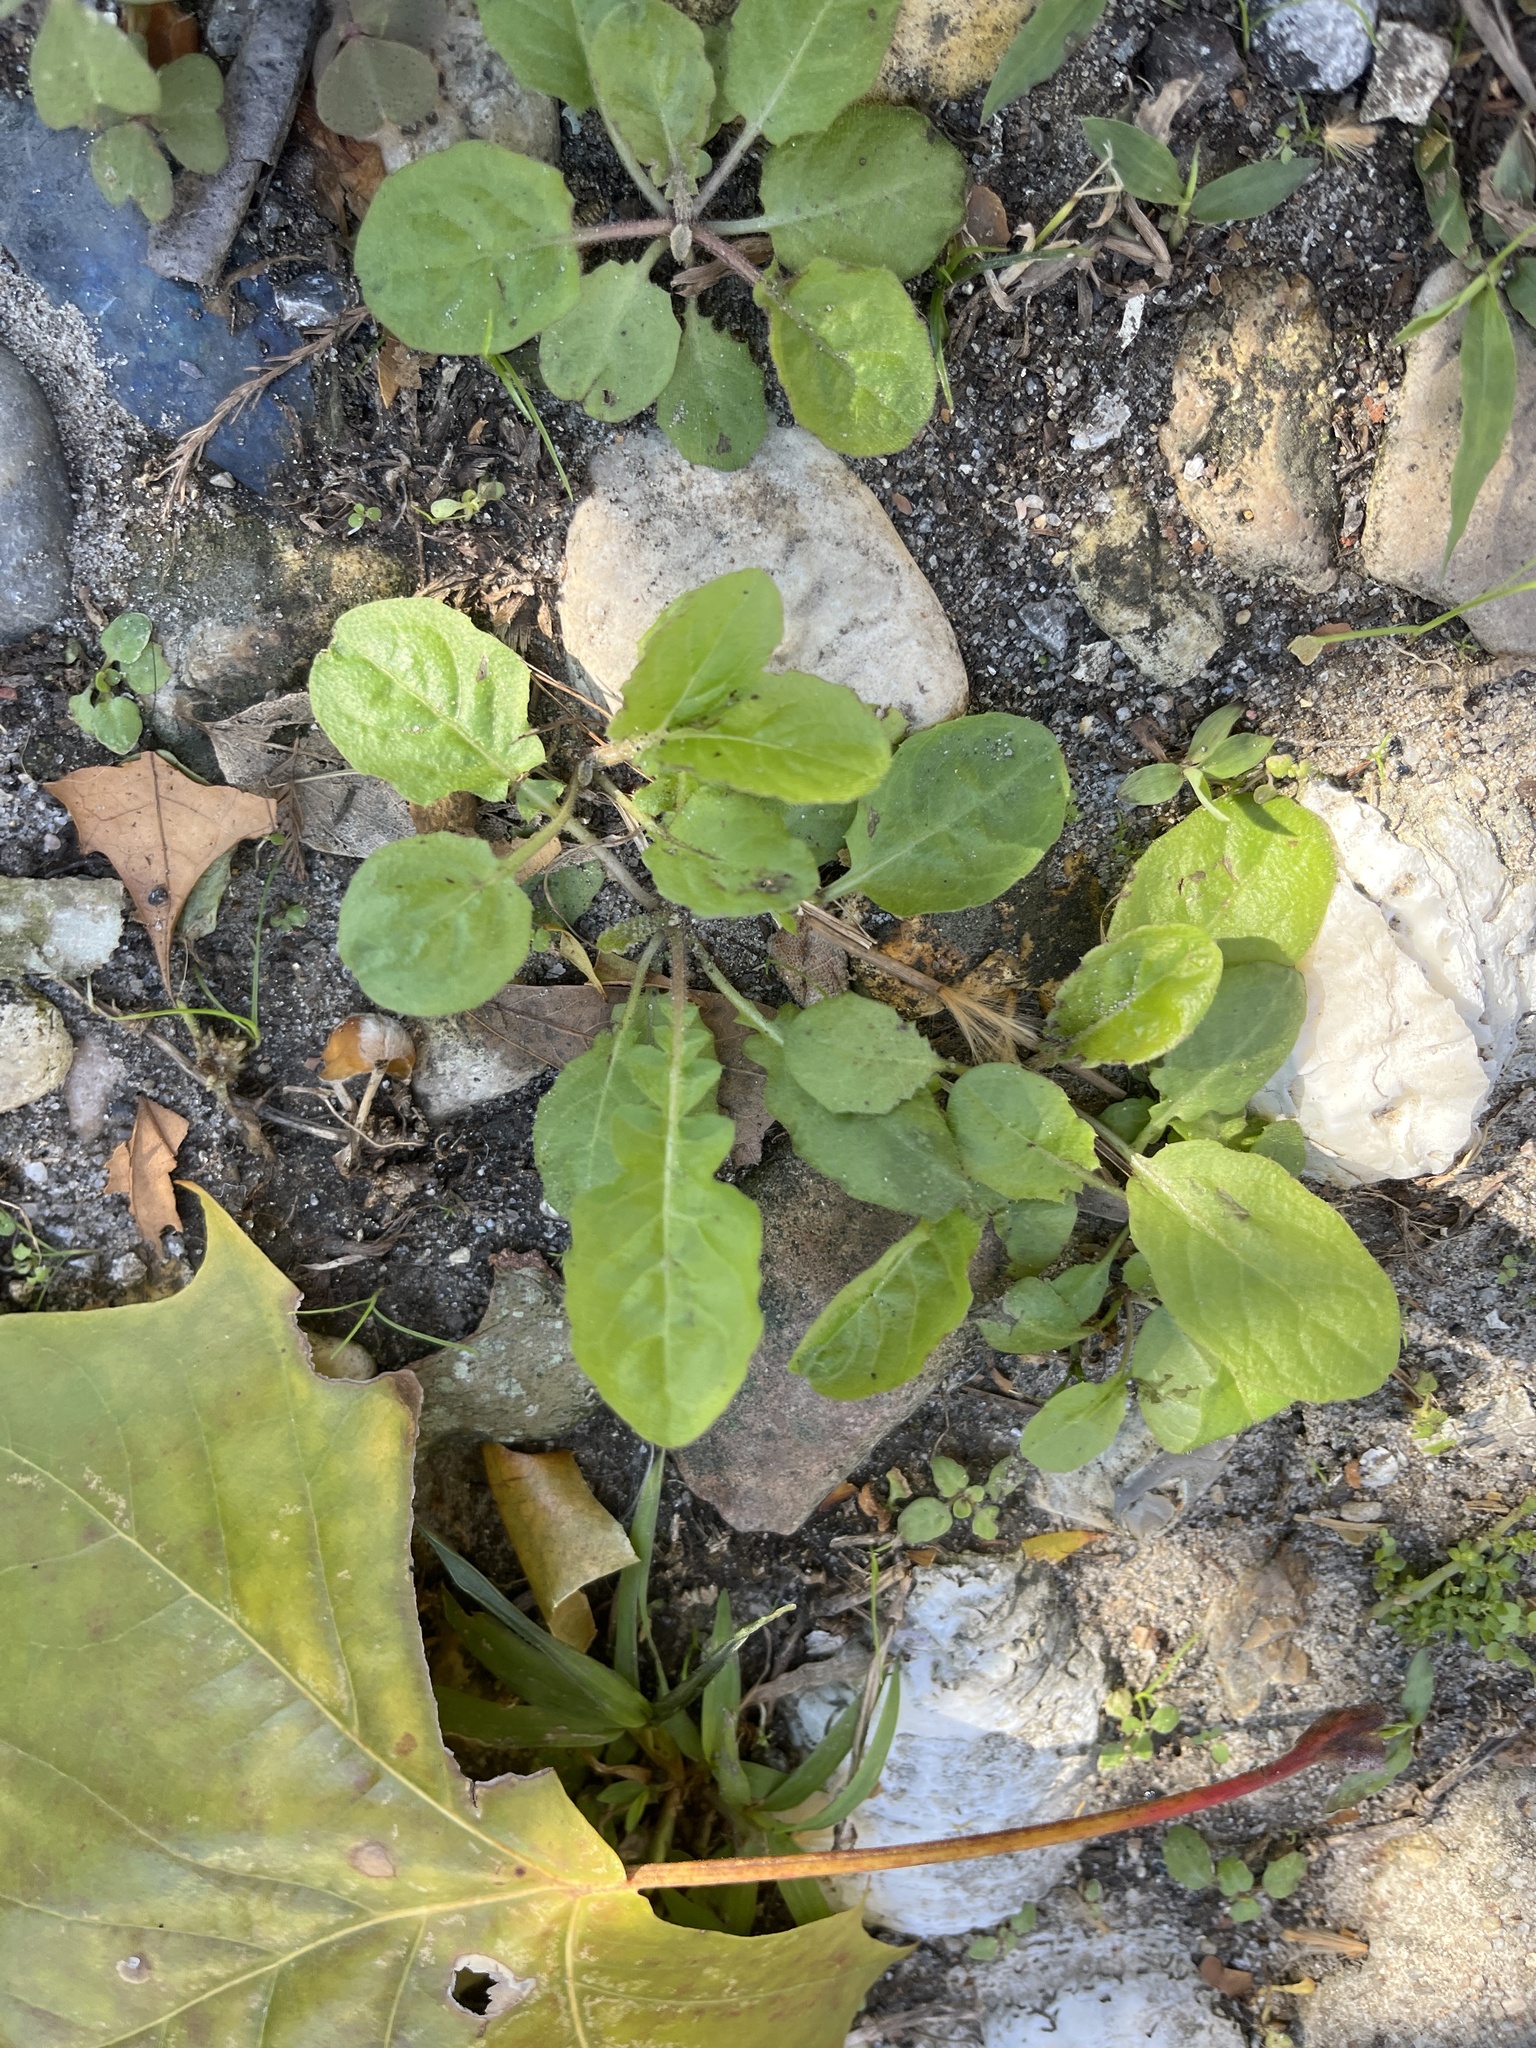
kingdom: Plantae
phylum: Tracheophyta
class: Magnoliopsida
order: Asterales
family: Asteraceae
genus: Youngia
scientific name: Youngia japonica
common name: Oriental false hawksbeard
